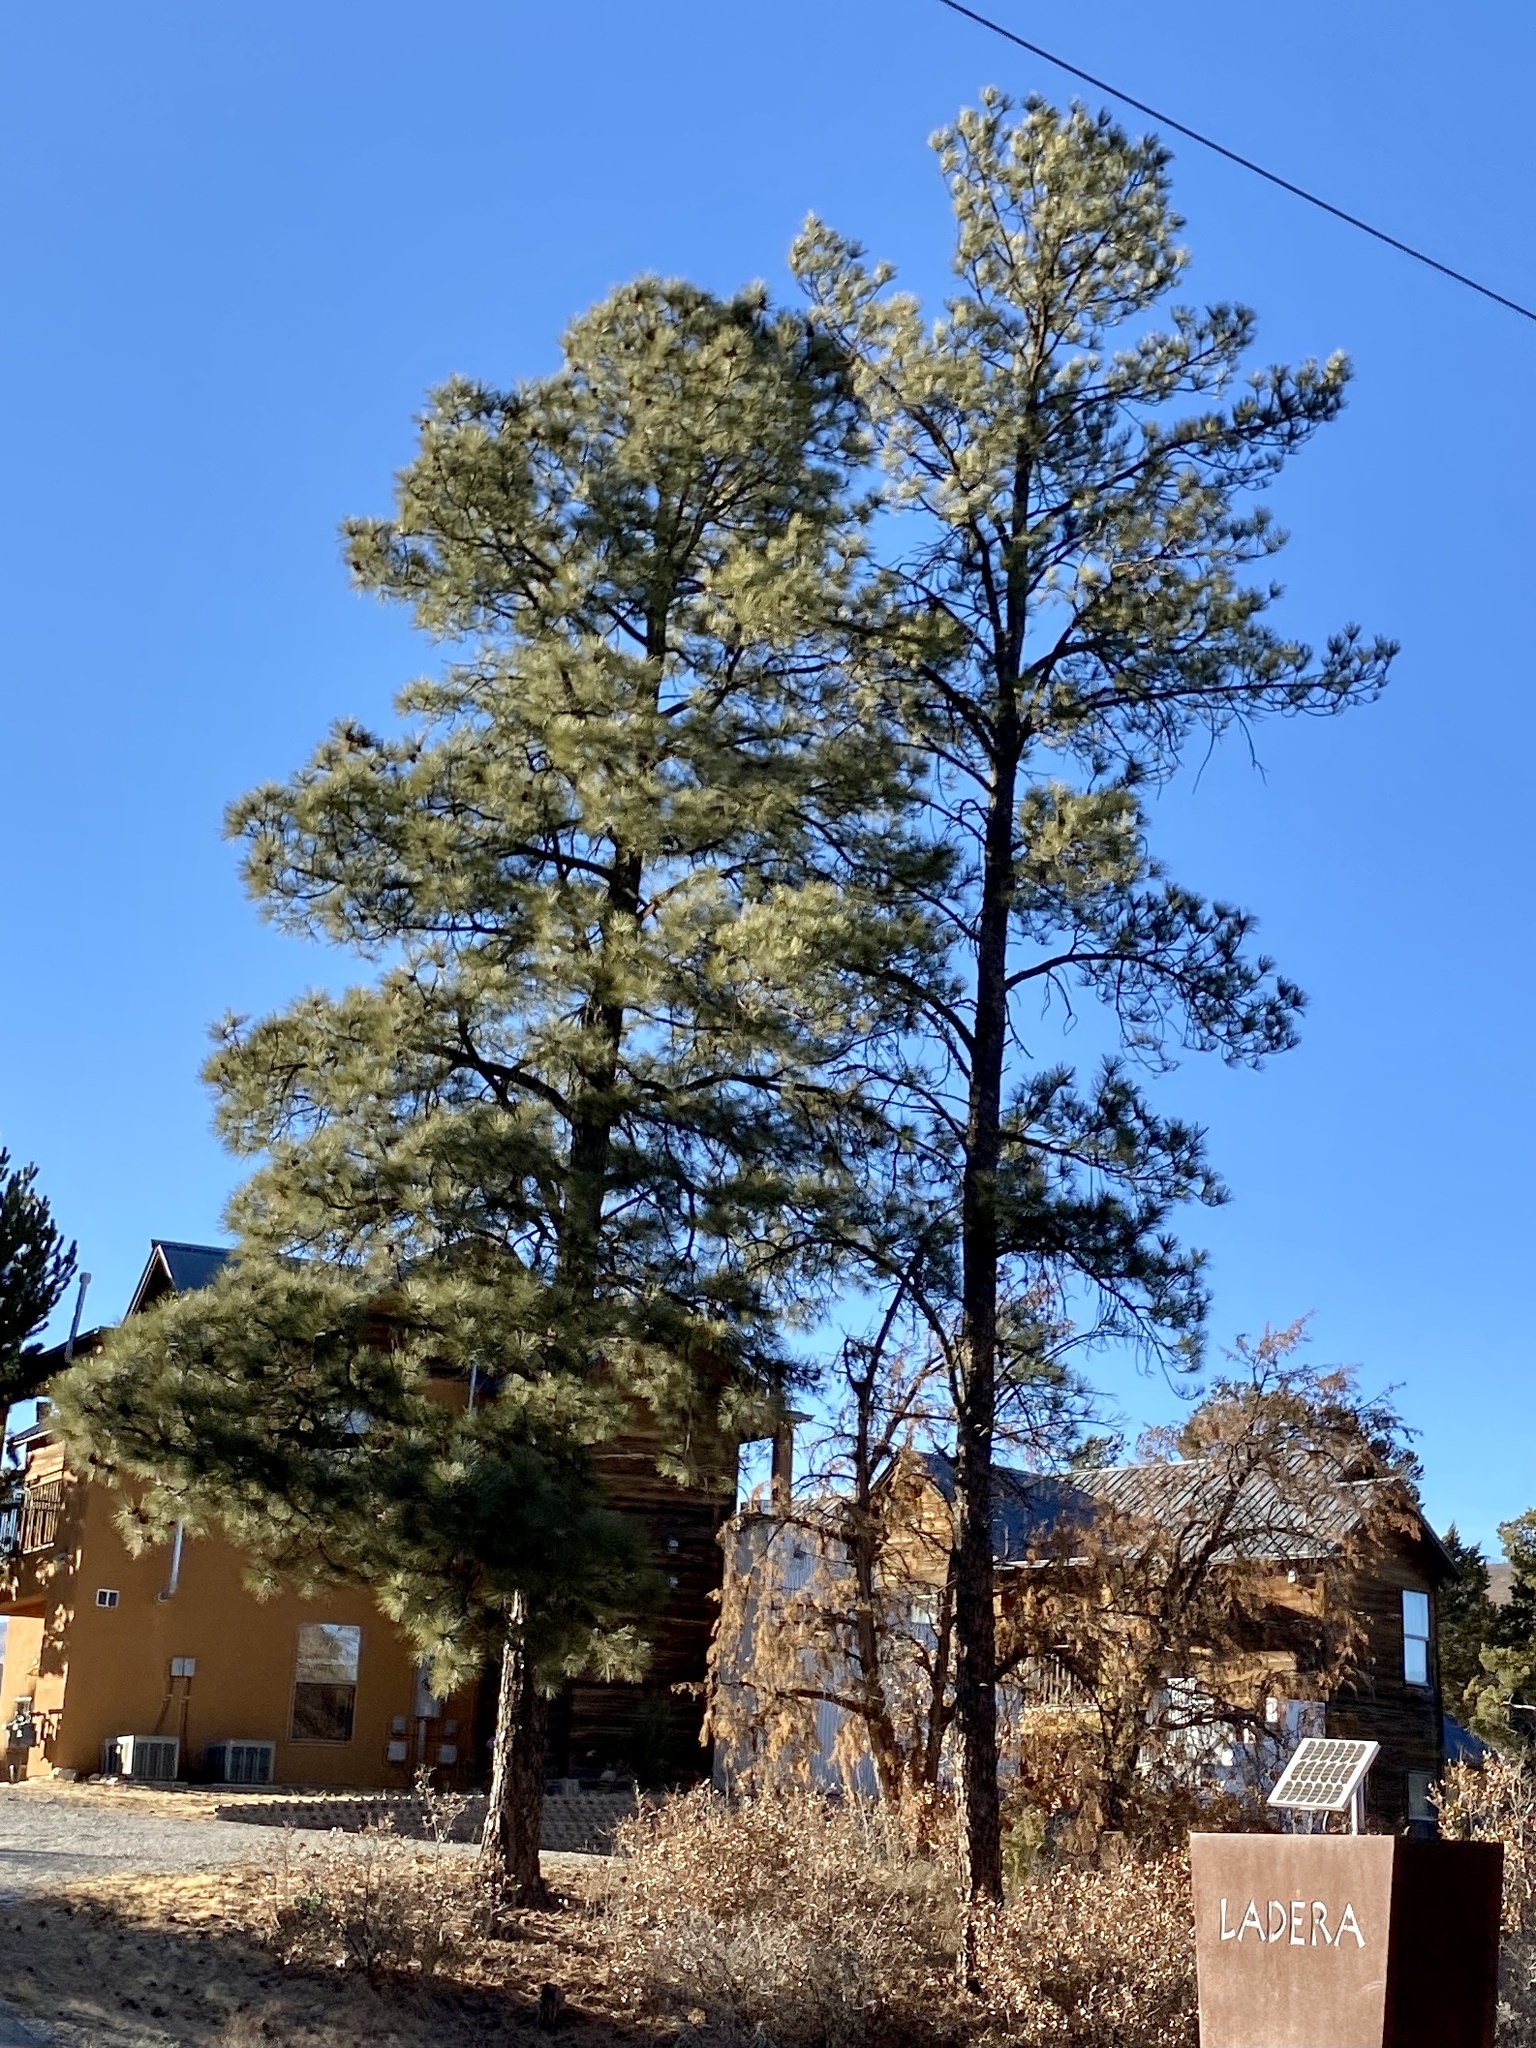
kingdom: Plantae
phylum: Tracheophyta
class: Pinopsida
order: Pinales
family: Pinaceae
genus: Pinus
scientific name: Pinus ponderosa
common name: Western yellow-pine
